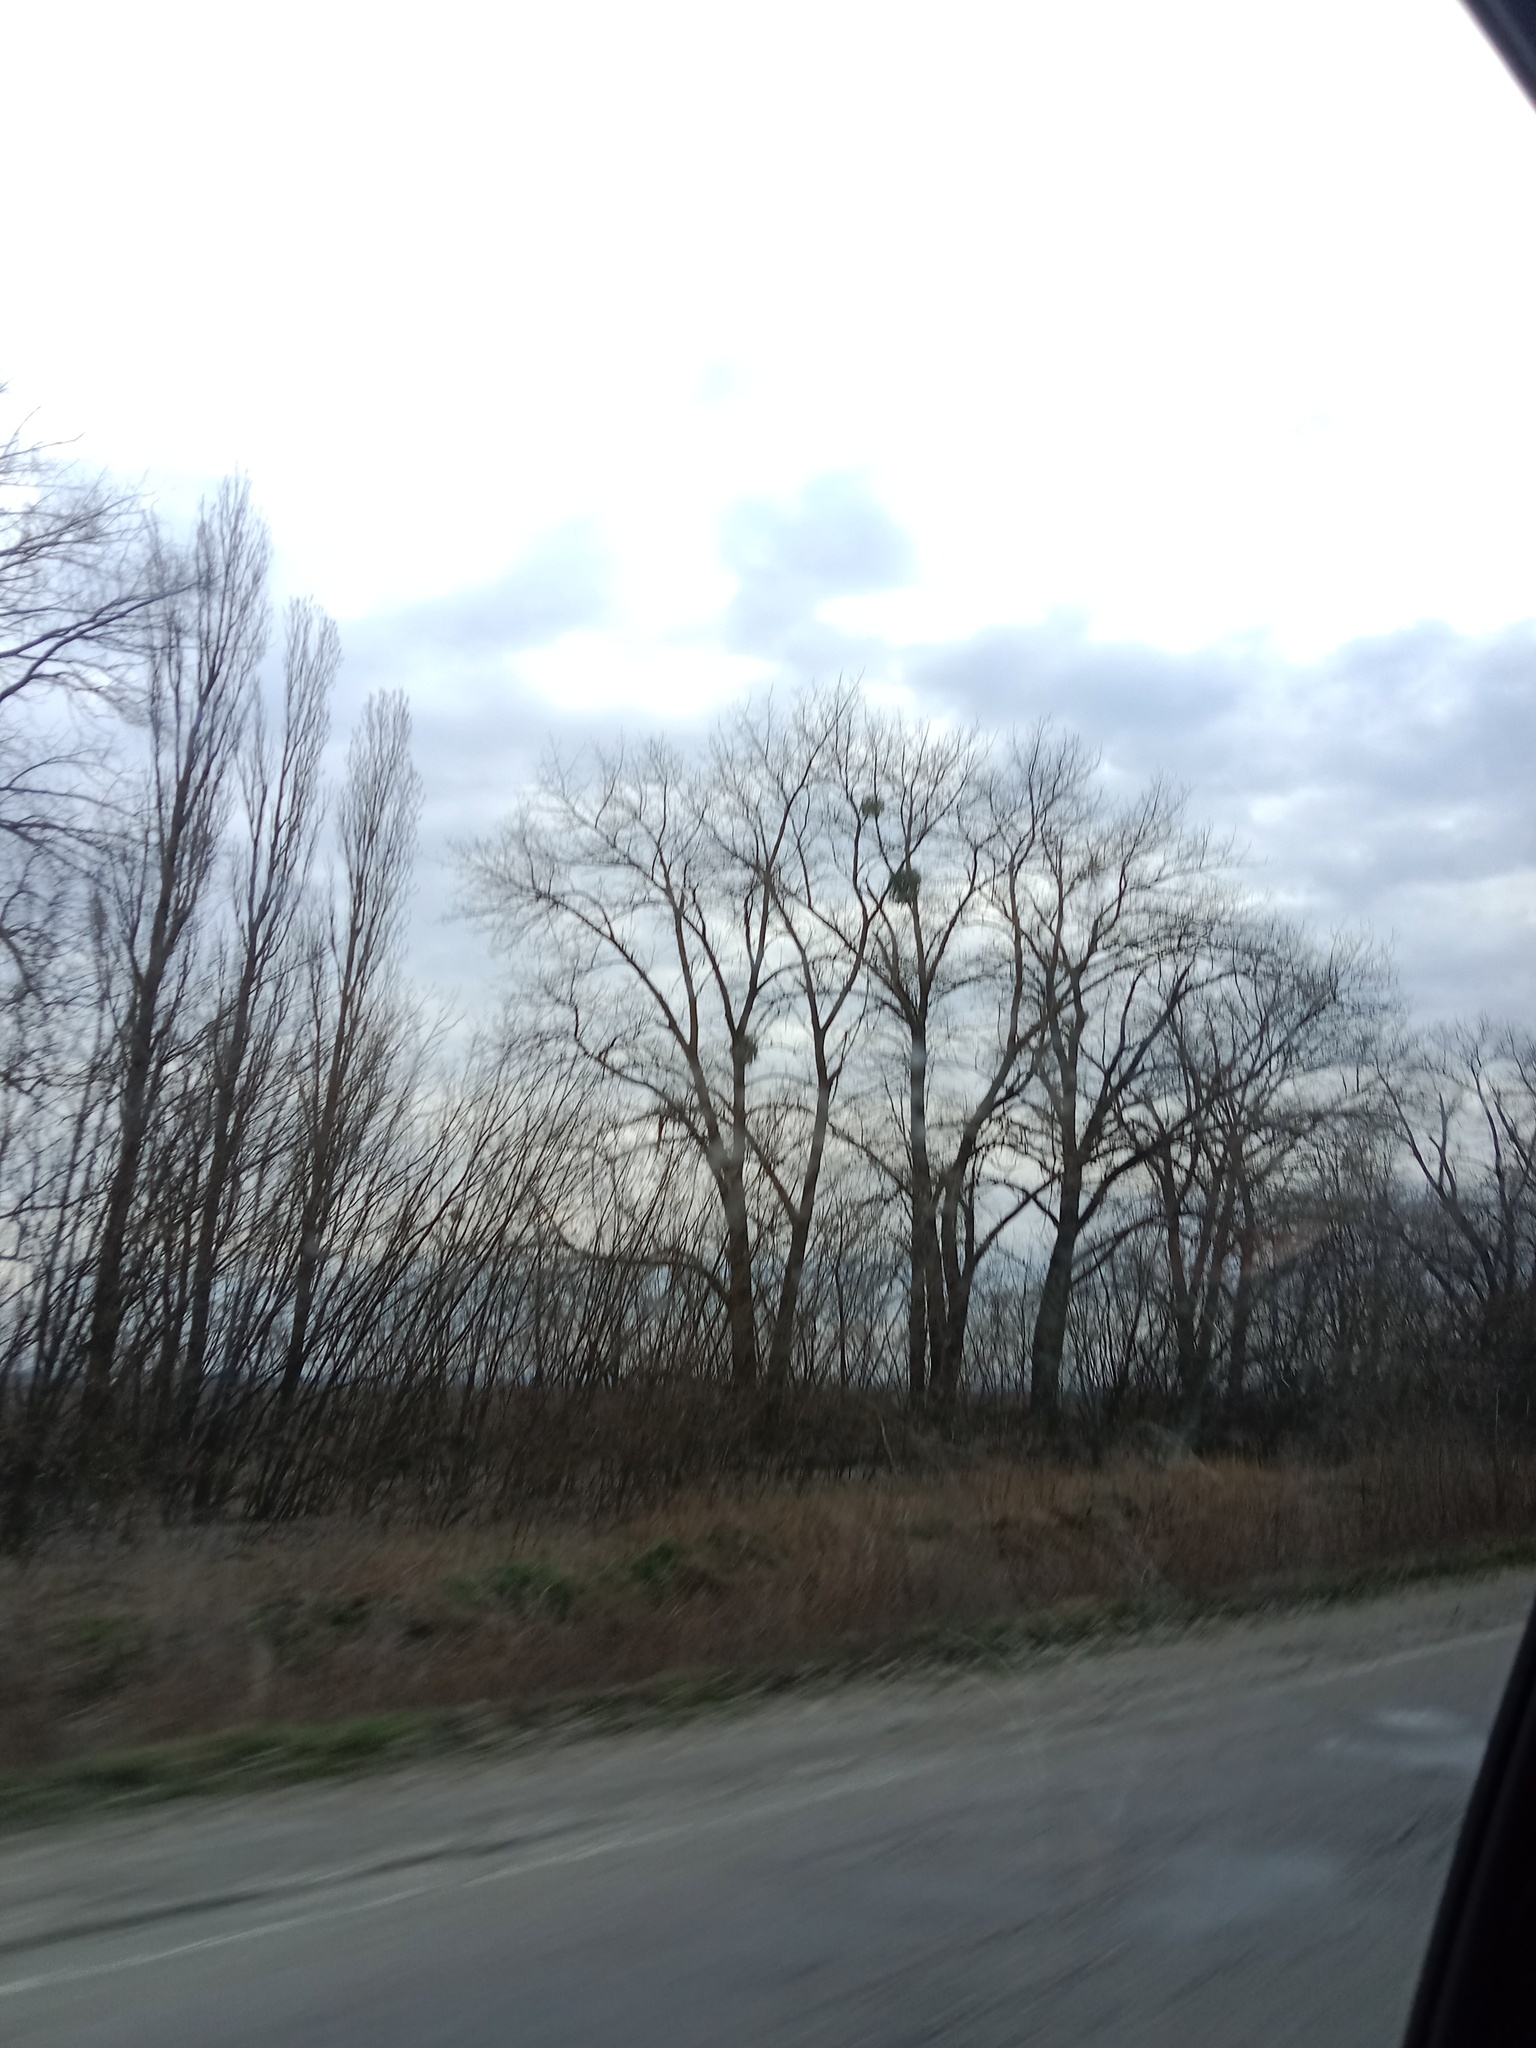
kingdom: Plantae
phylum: Tracheophyta
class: Magnoliopsida
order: Santalales
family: Viscaceae
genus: Viscum
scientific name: Viscum album
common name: Mistletoe
